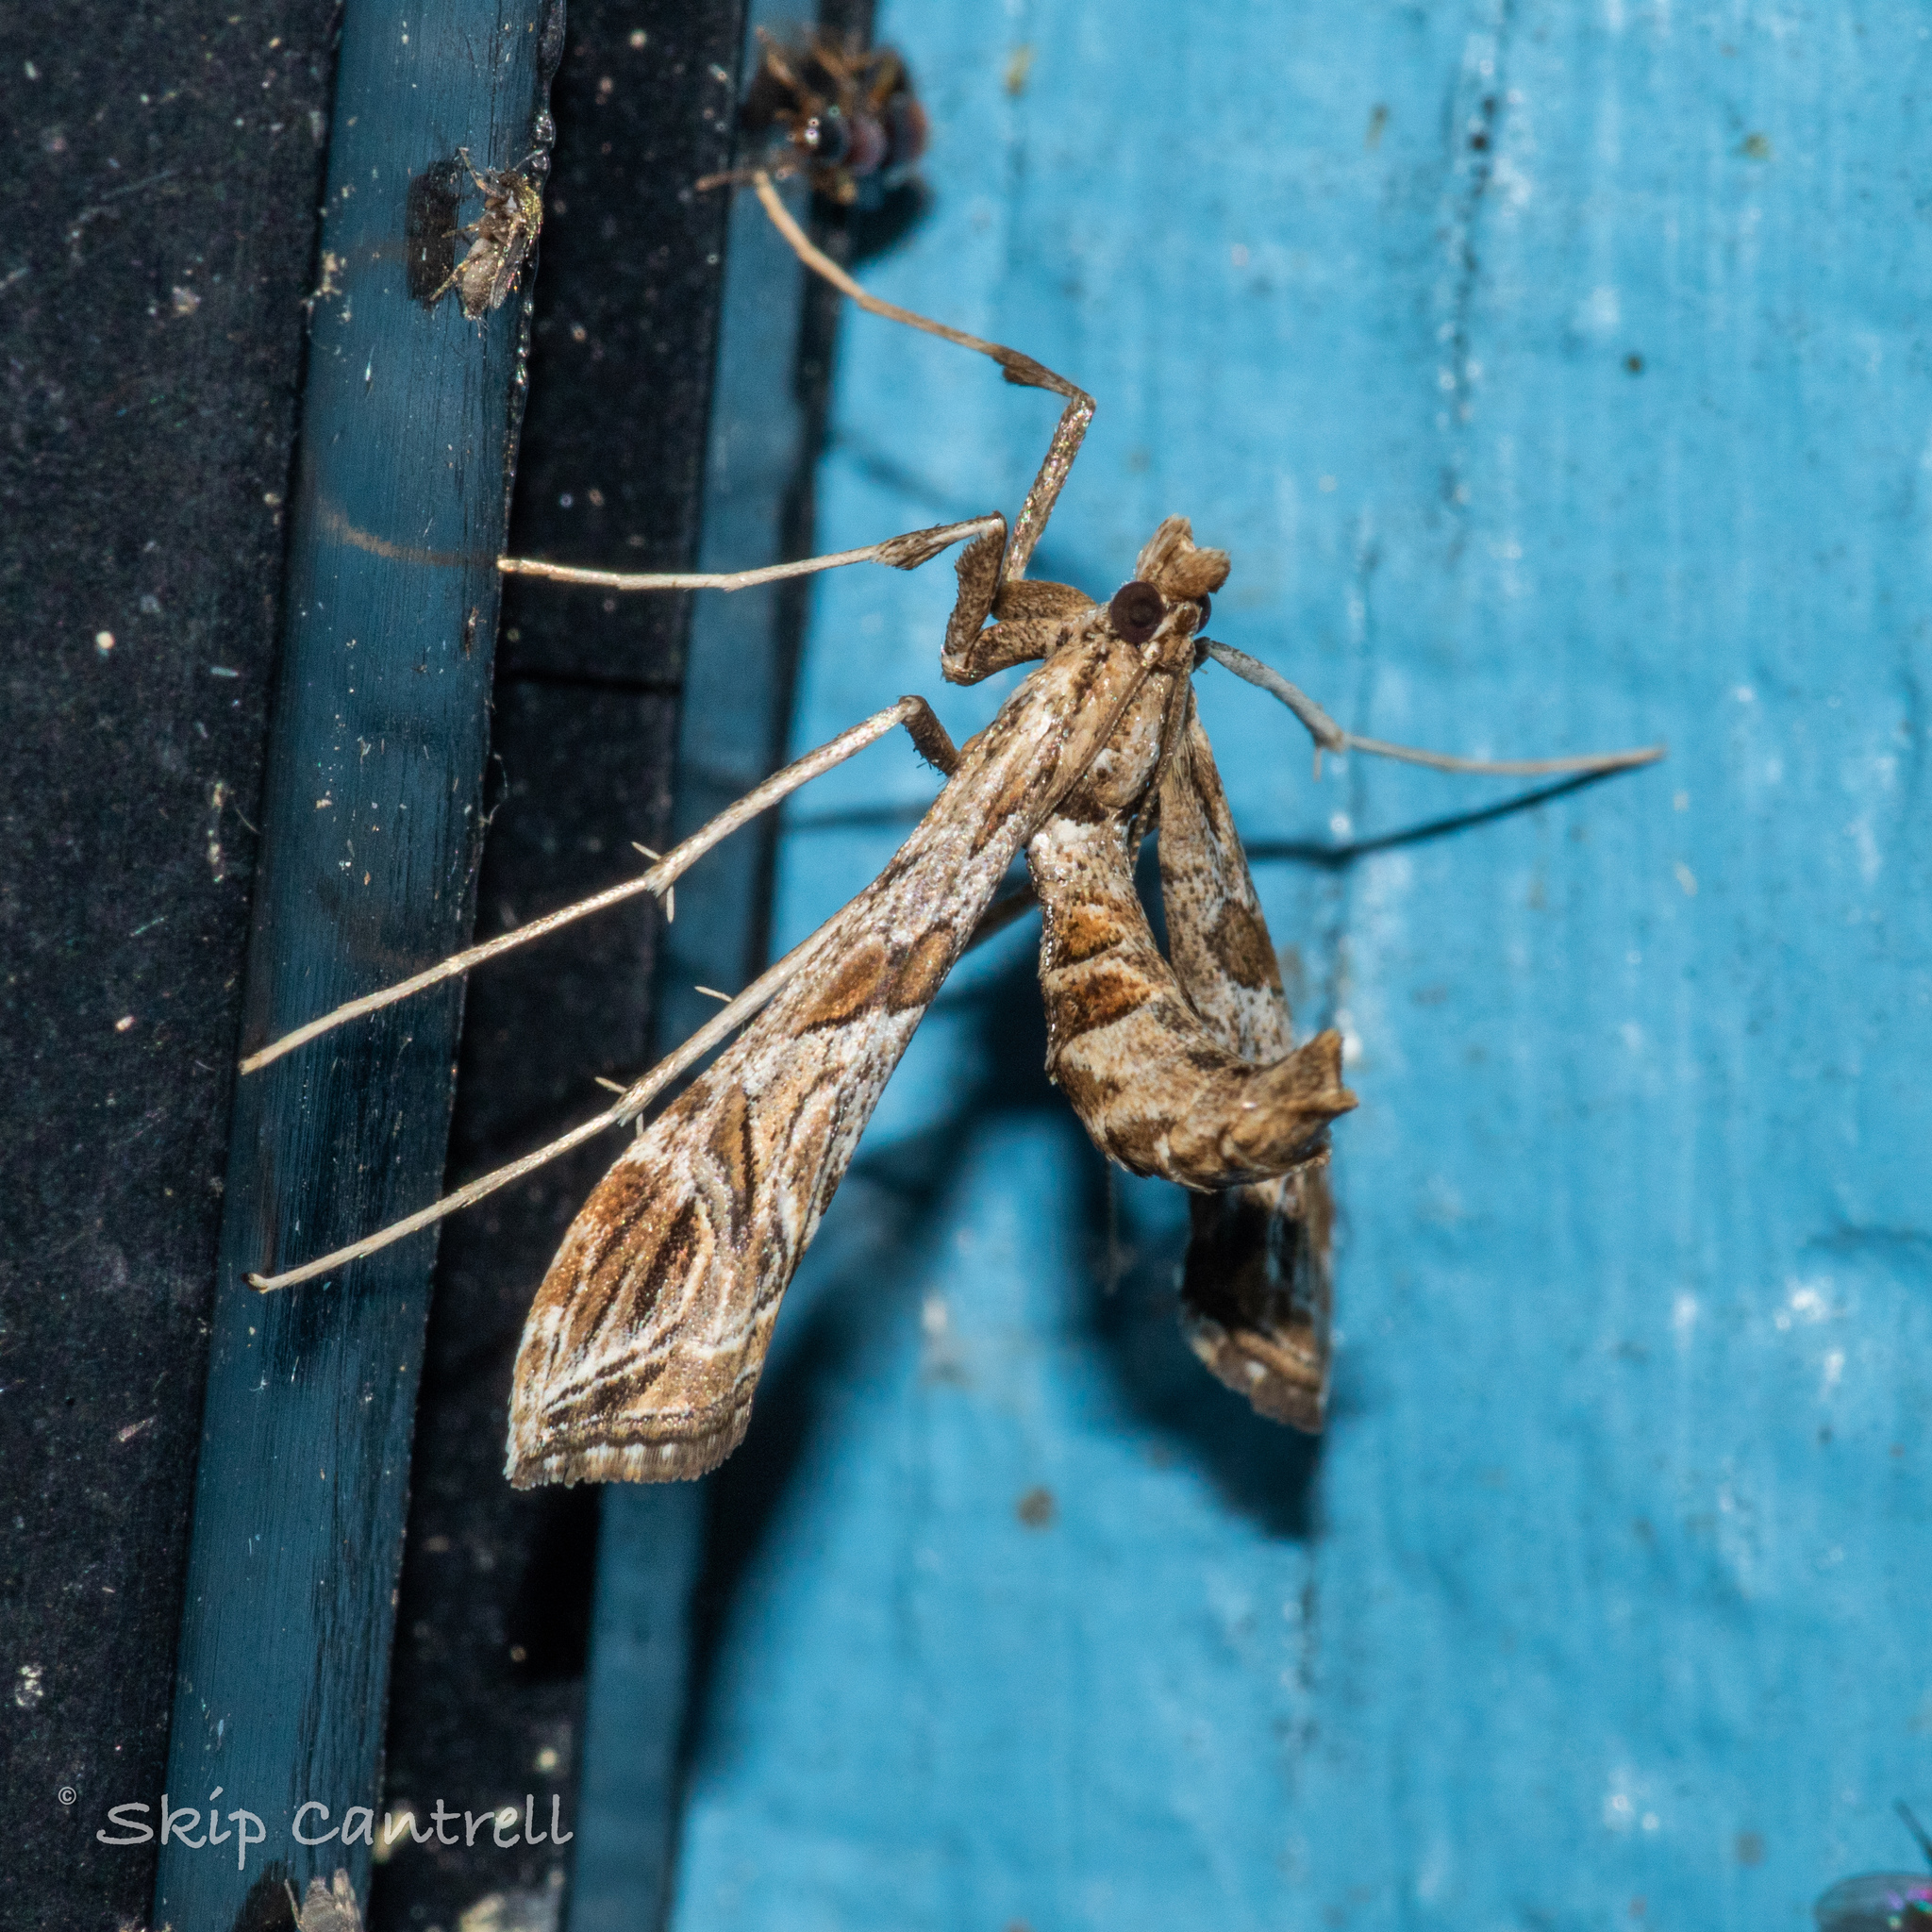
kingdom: Animalia
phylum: Arthropoda
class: Insecta
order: Lepidoptera
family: Crambidae
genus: Lineodes
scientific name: Lineodes interrupta
